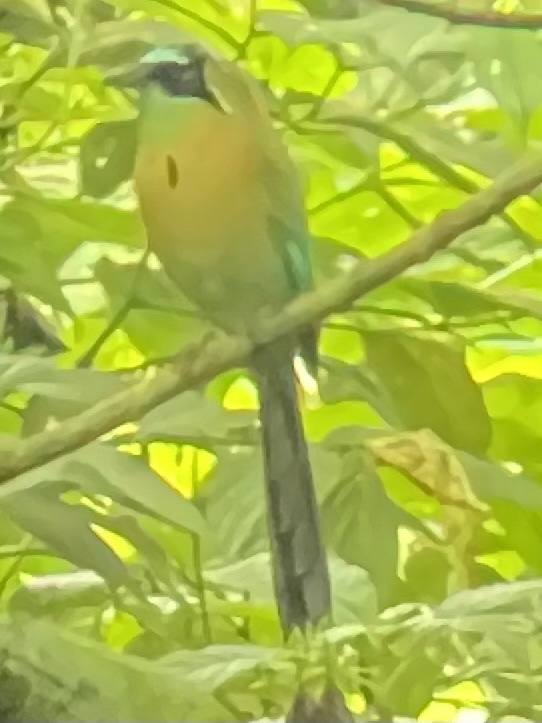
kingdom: Animalia
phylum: Chordata
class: Aves
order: Coraciiformes
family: Momotidae
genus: Momotus
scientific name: Momotus lessonii
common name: Lesson's motmot
